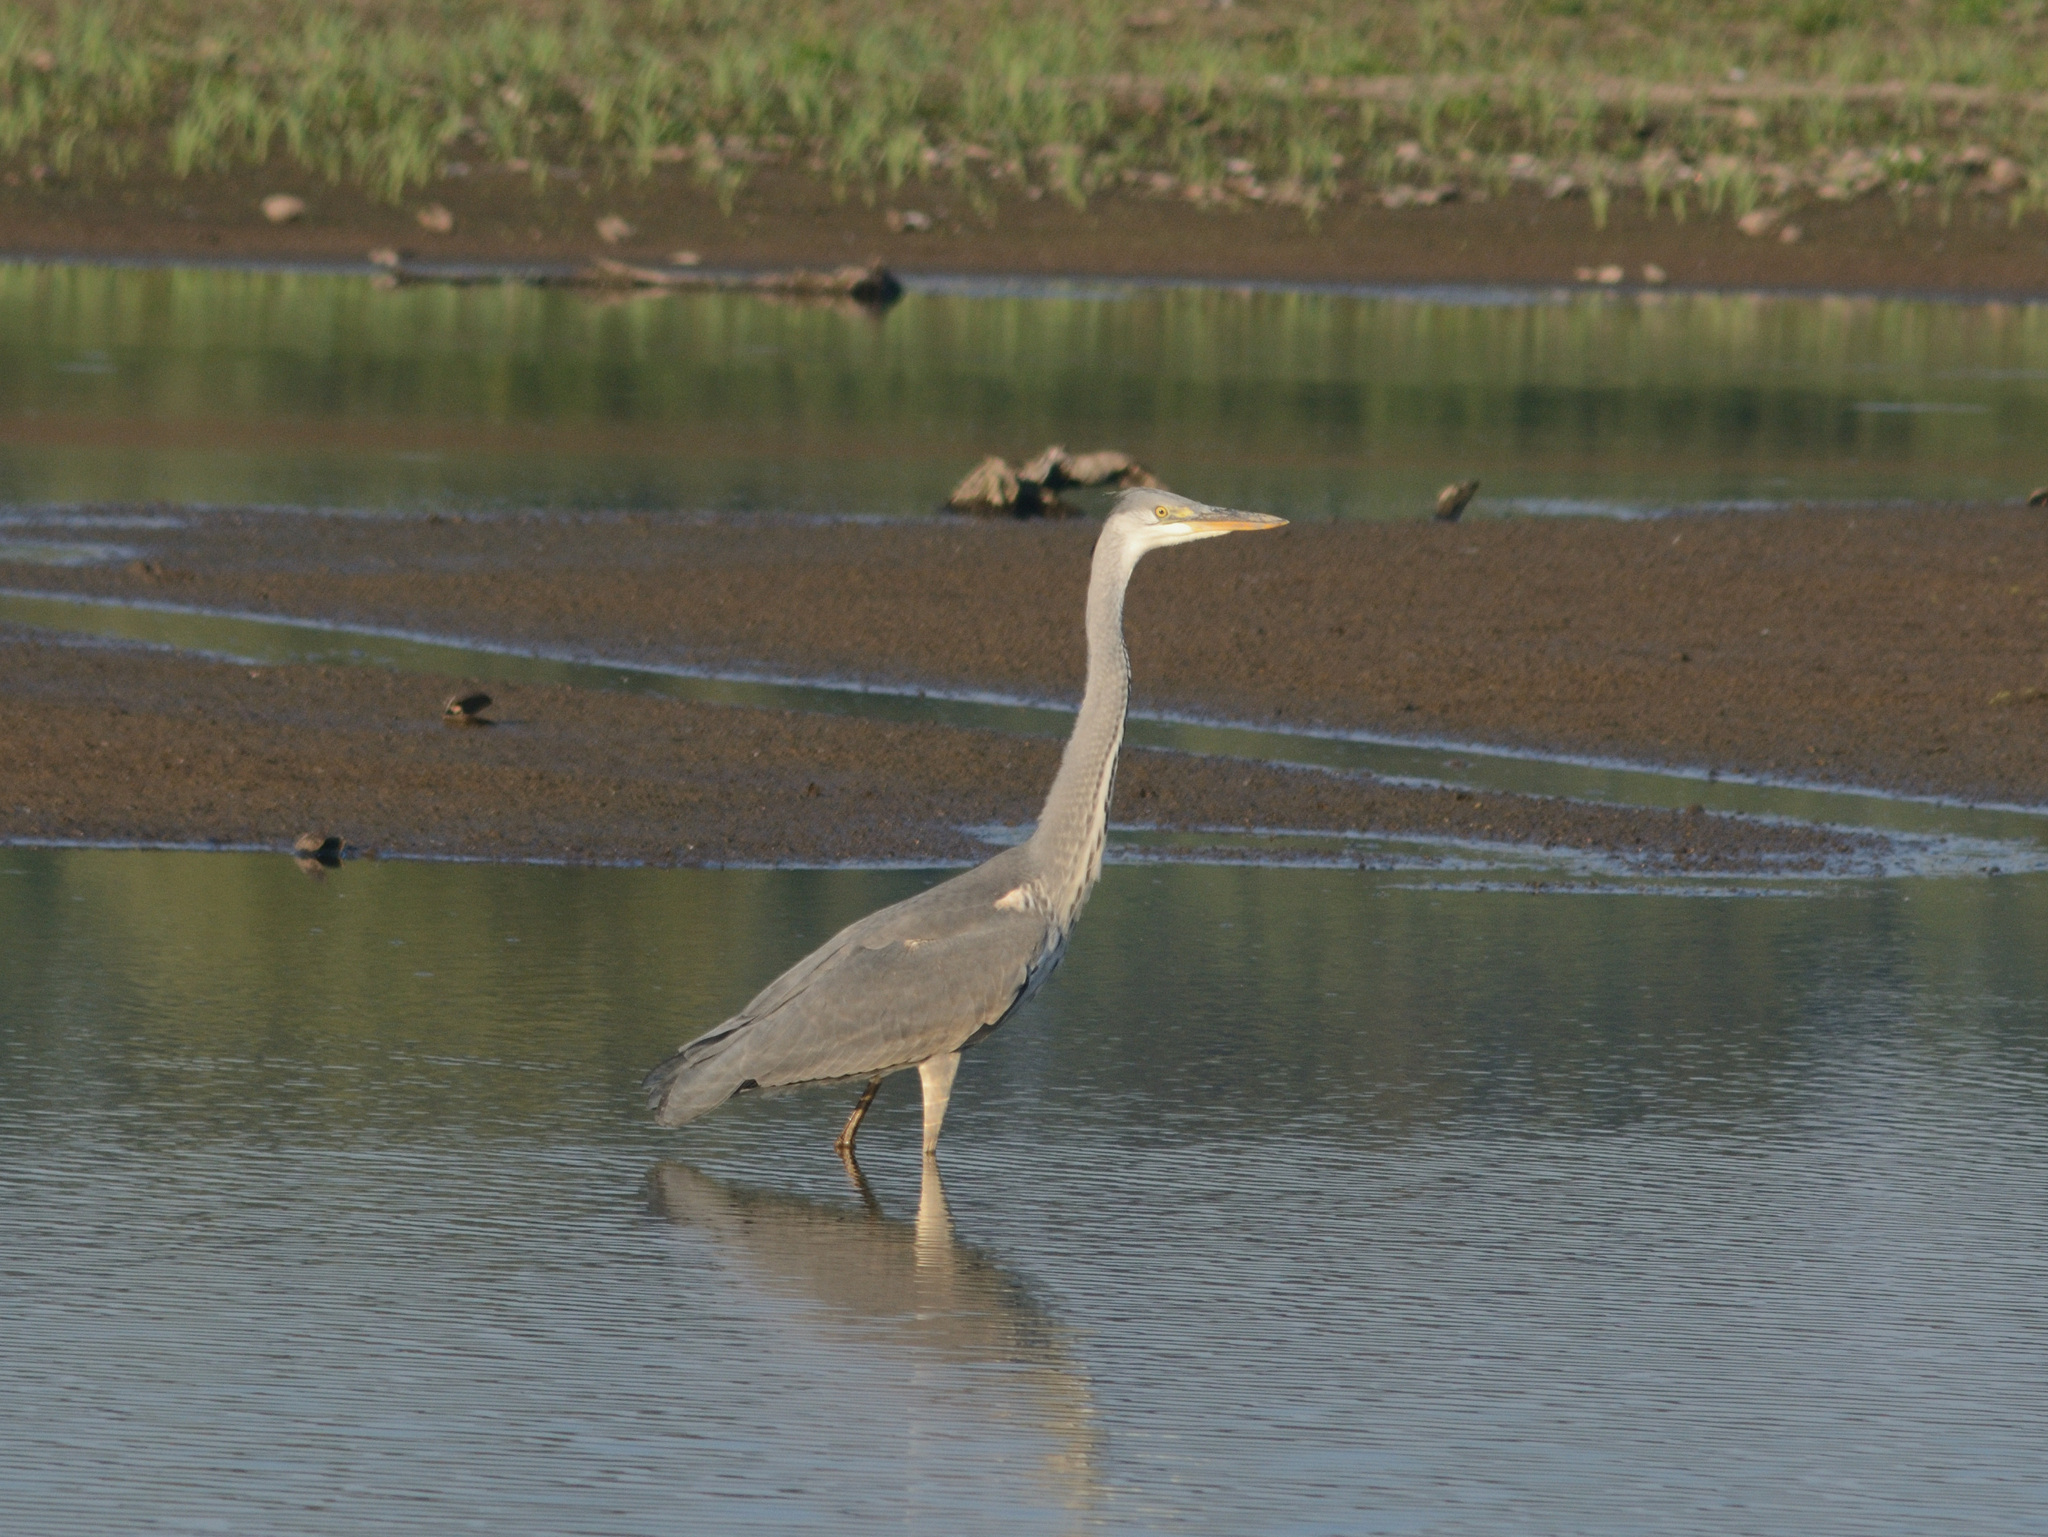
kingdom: Animalia
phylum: Chordata
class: Aves
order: Pelecaniformes
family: Ardeidae
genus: Ardea
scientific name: Ardea cinerea
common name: Grey heron
